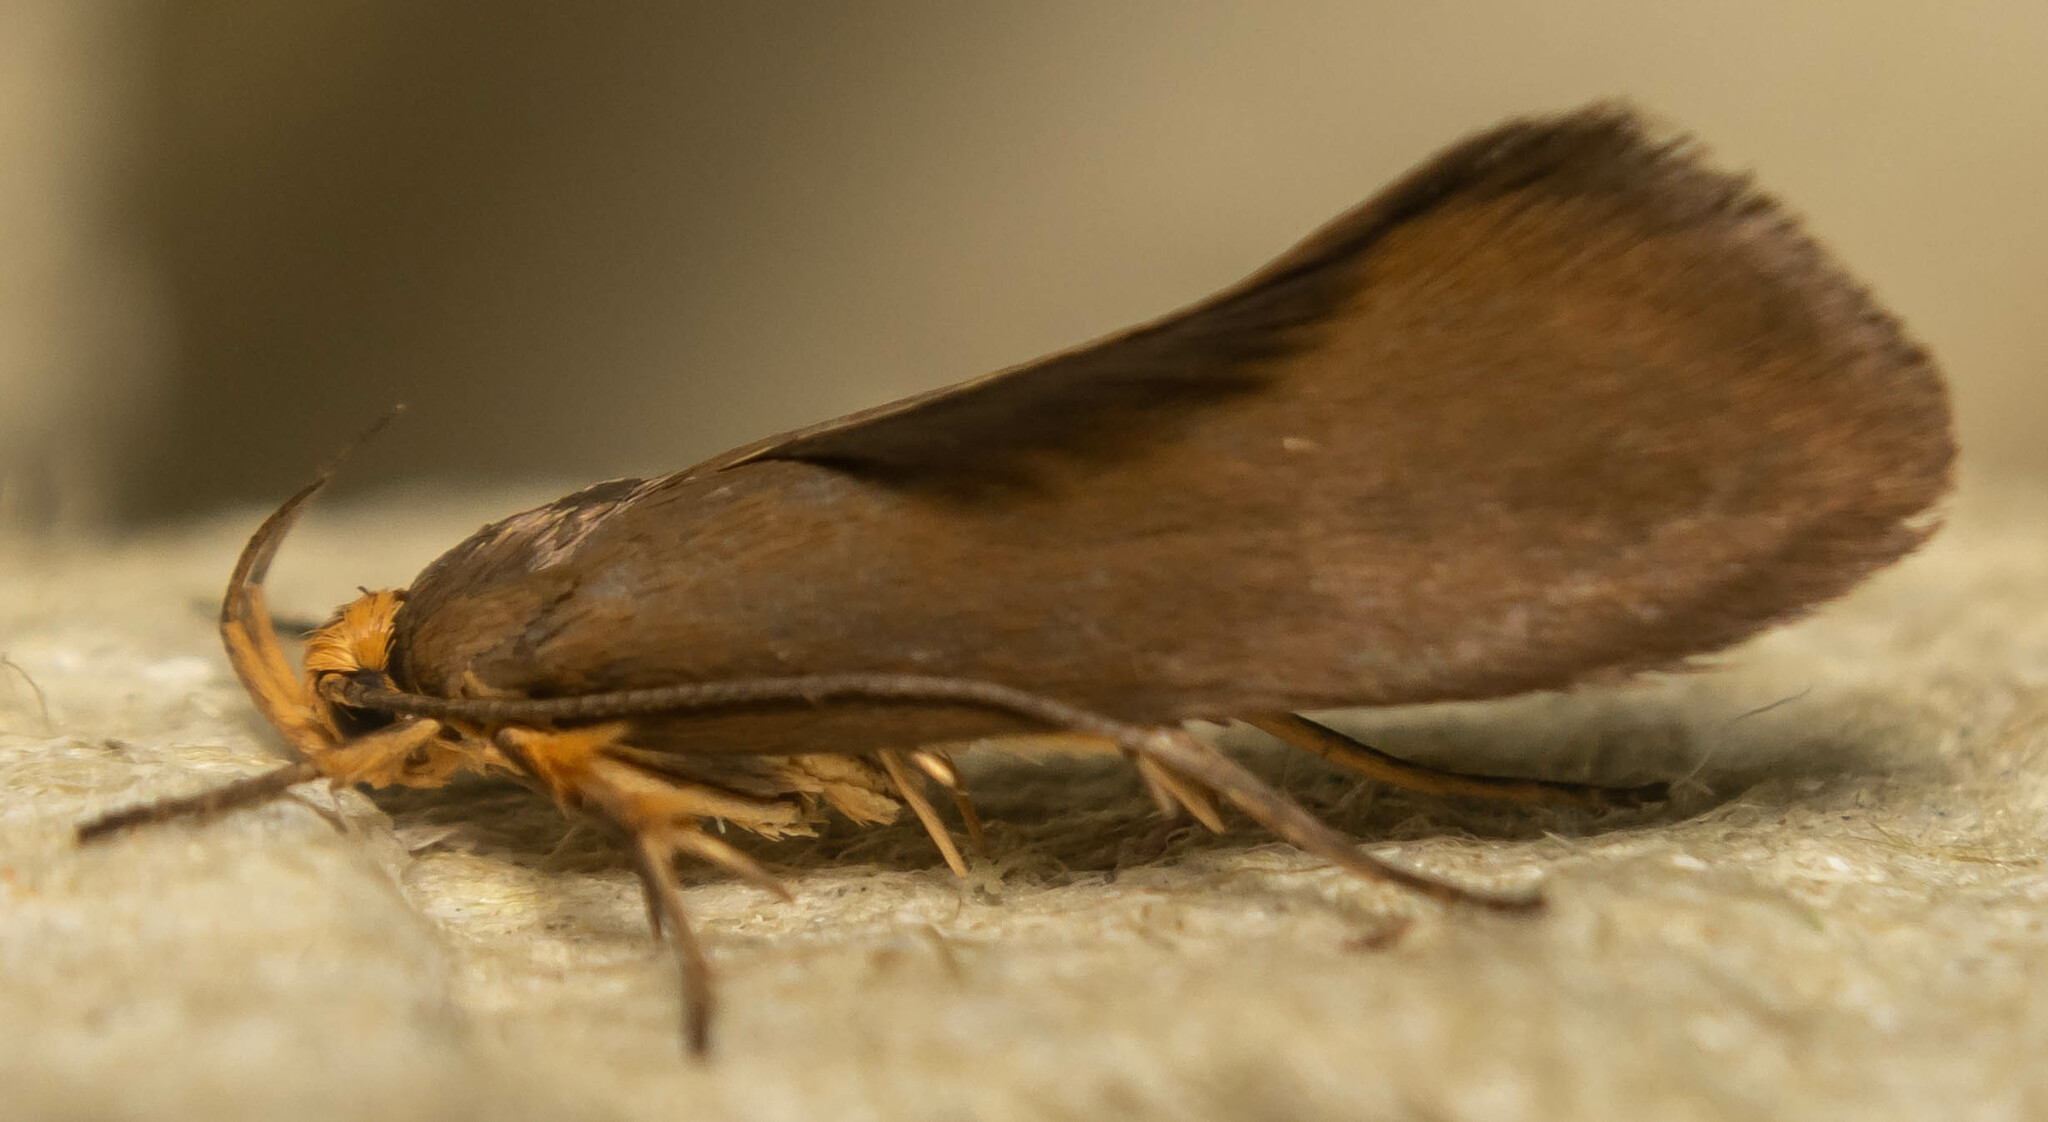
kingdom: Animalia
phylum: Arthropoda
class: Insecta
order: Lepidoptera
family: Oecophoridae
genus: Borkhausenia
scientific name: Borkhausenia Crassa unitella
